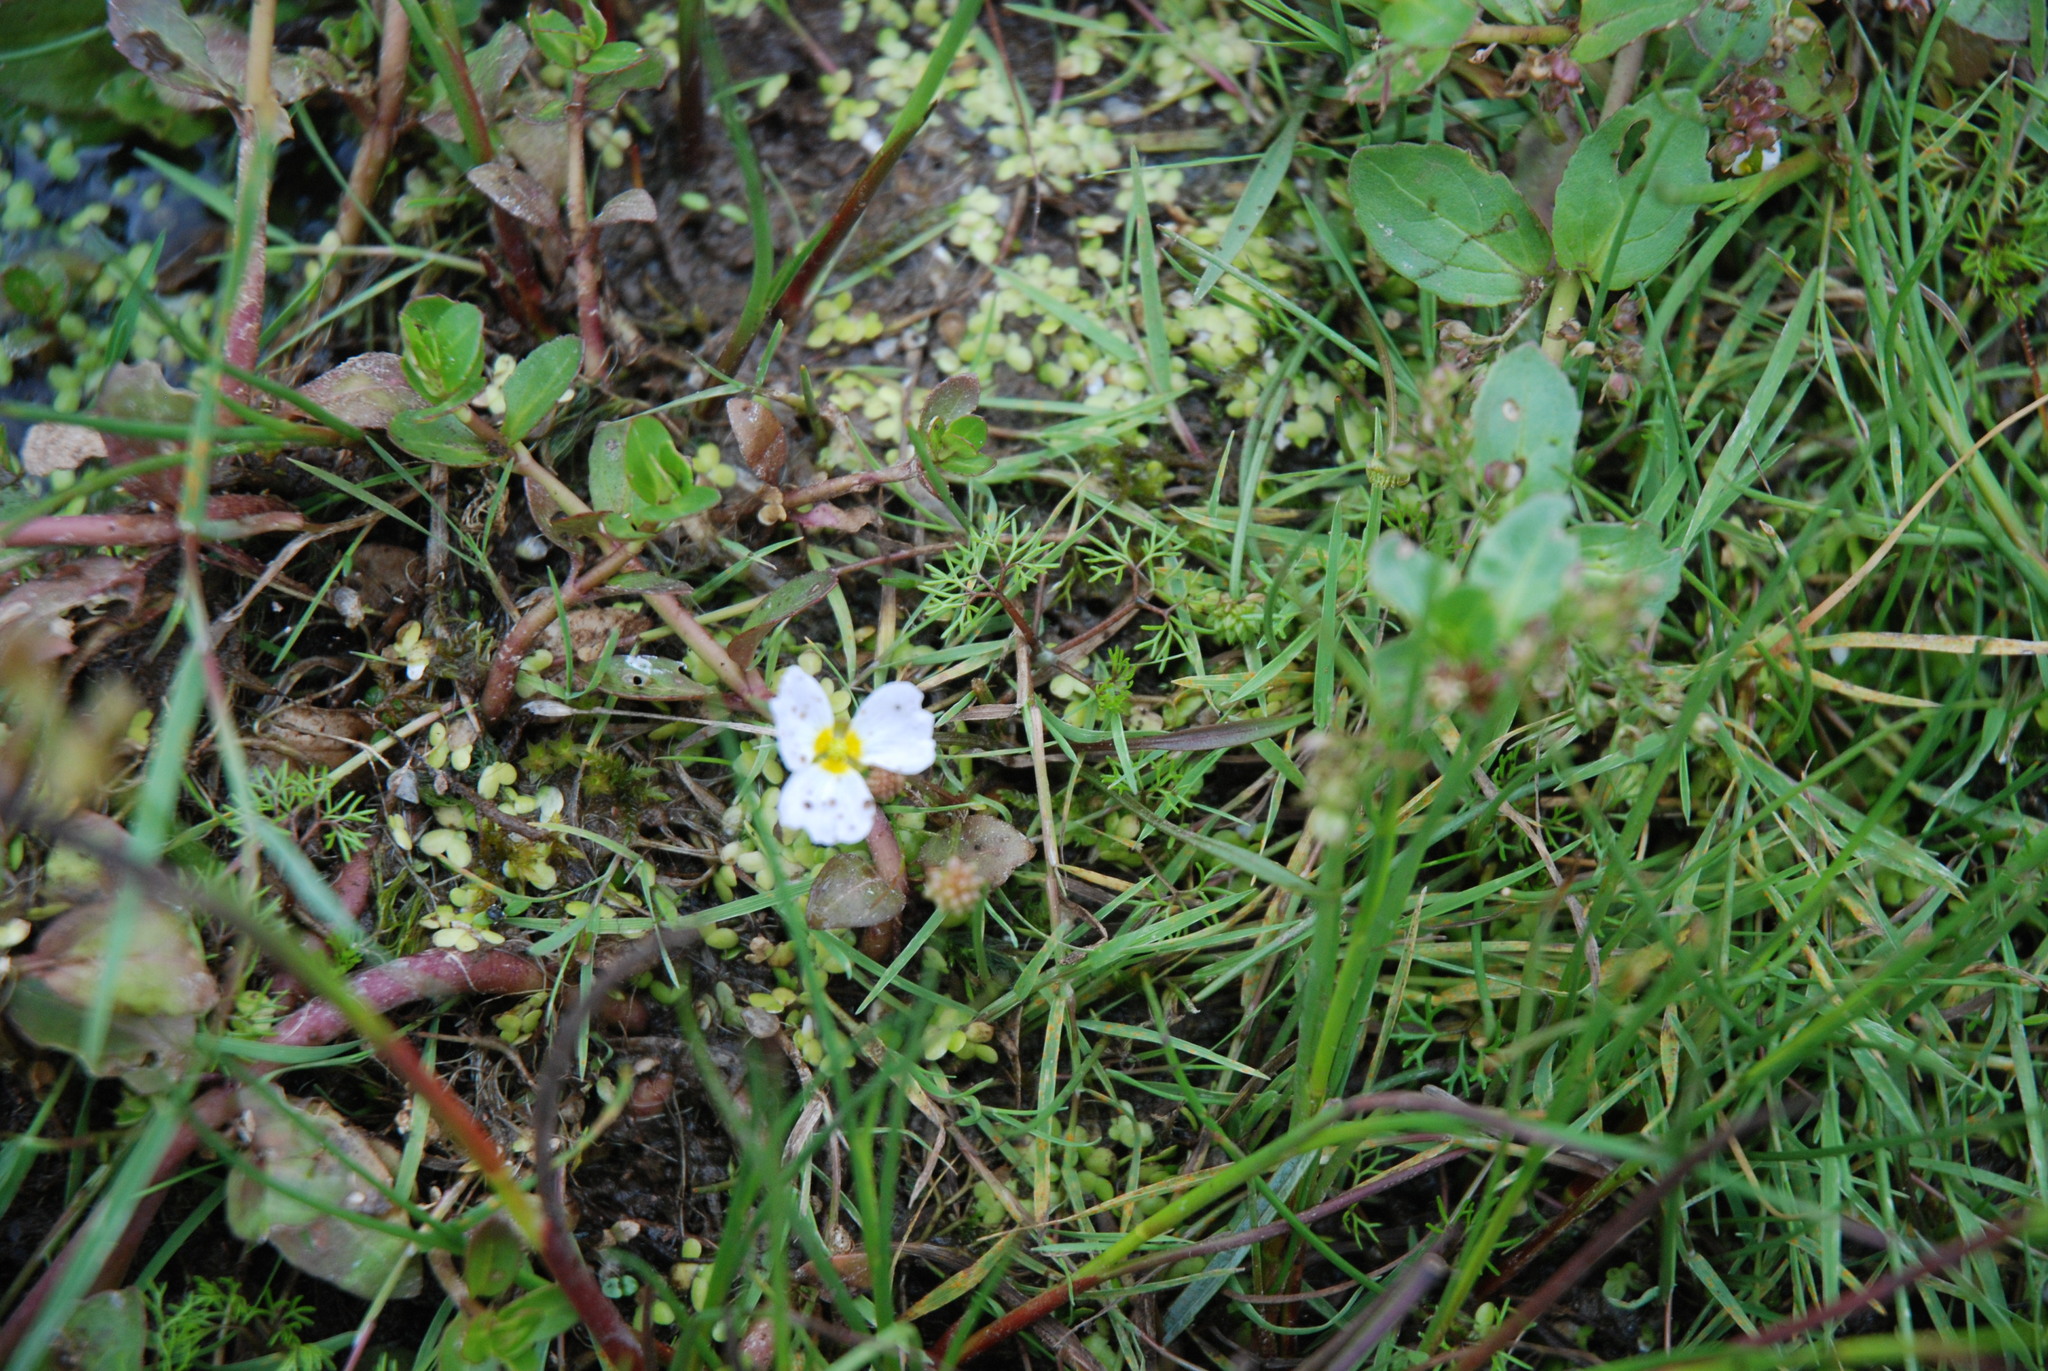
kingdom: Plantae
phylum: Tracheophyta
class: Magnoliopsida
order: Ericales
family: Primulaceae
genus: Hottonia
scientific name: Hottonia palustris
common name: Water-violet
